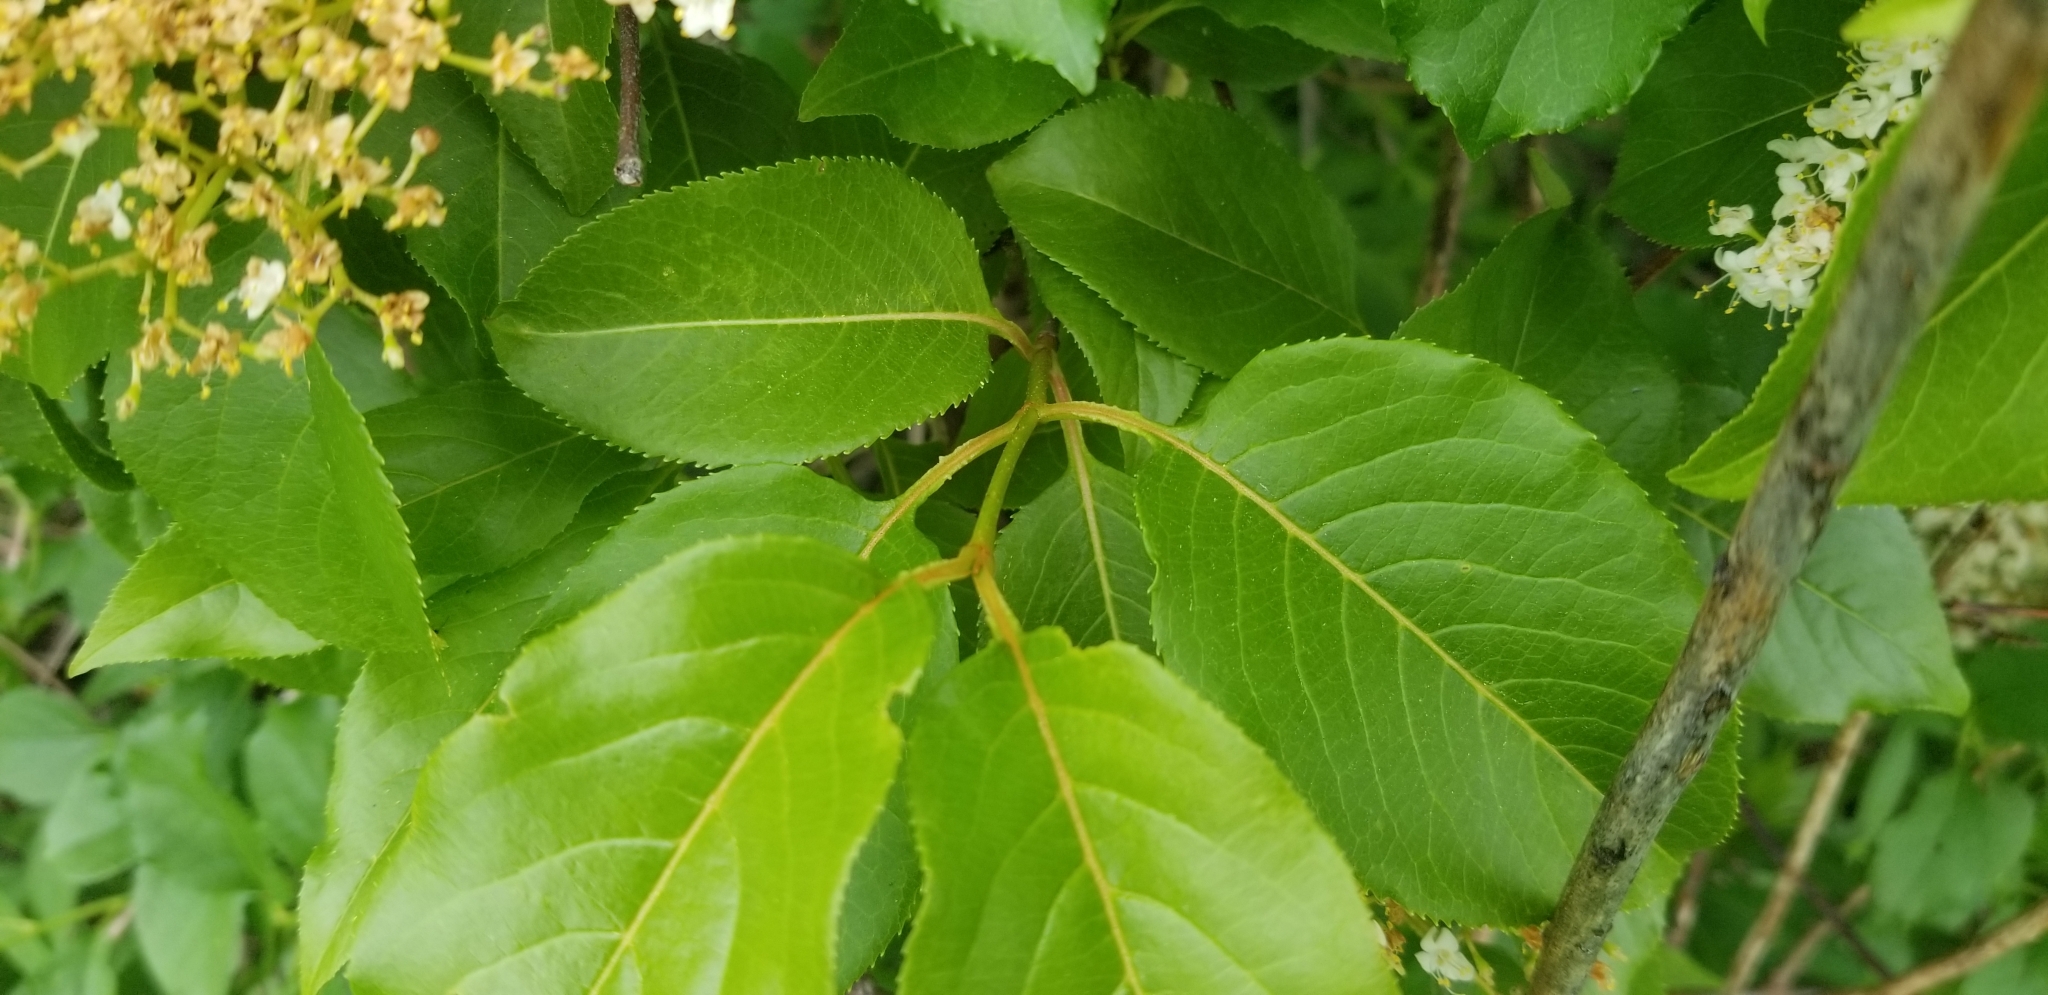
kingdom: Plantae
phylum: Tracheophyta
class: Magnoliopsida
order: Dipsacales
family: Viburnaceae
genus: Viburnum
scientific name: Viburnum lentago
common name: Black haw
